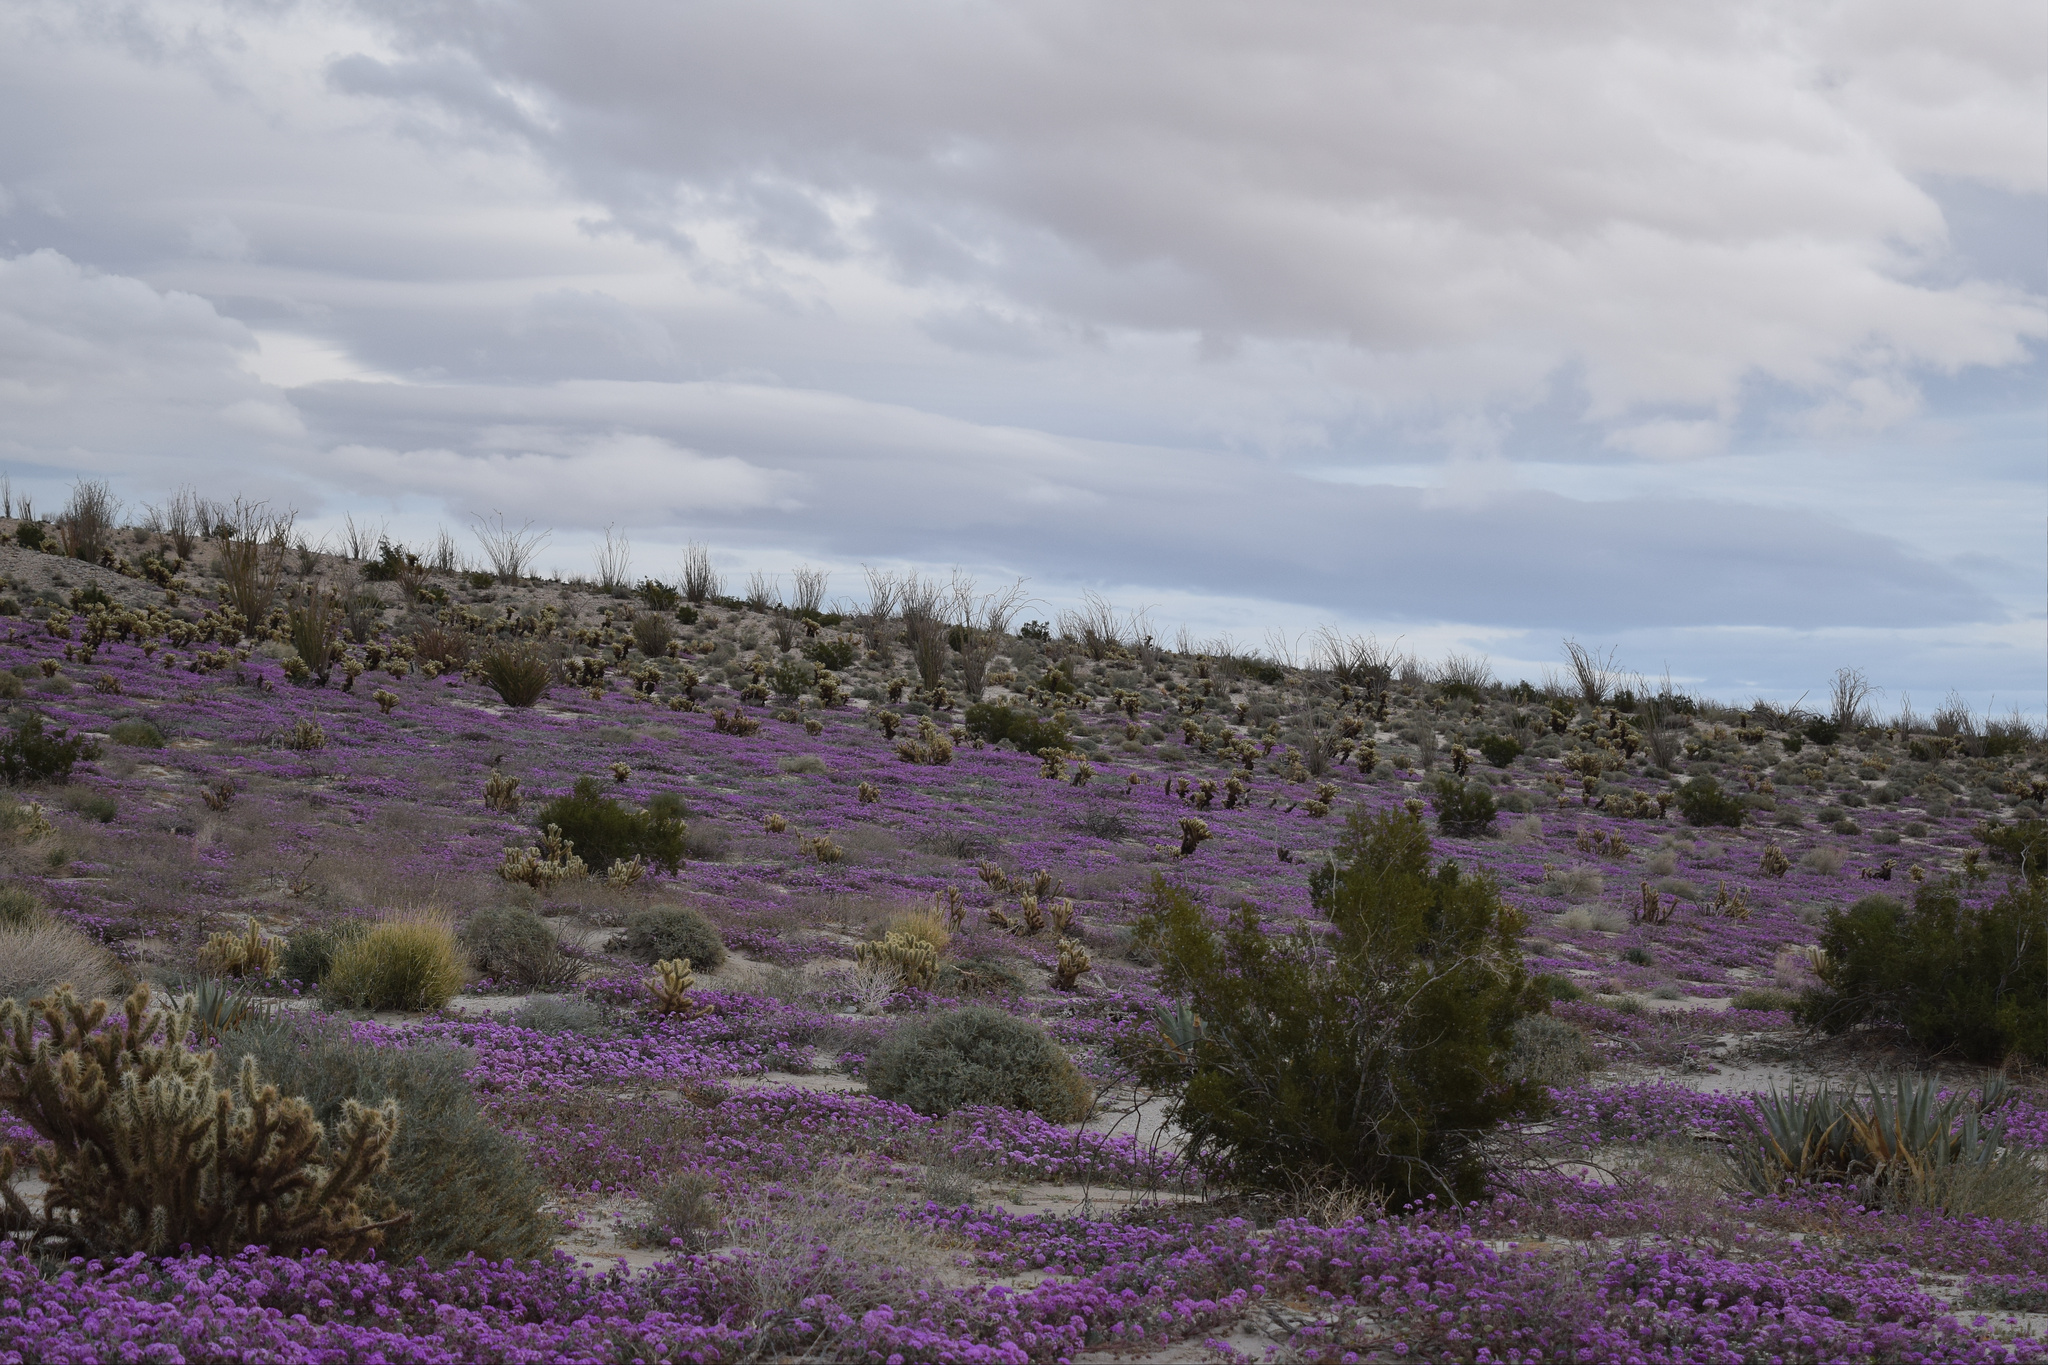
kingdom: Plantae
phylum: Tracheophyta
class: Magnoliopsida
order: Caryophyllales
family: Nyctaginaceae
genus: Abronia
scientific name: Abronia villosa
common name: Desert sand-verbena
